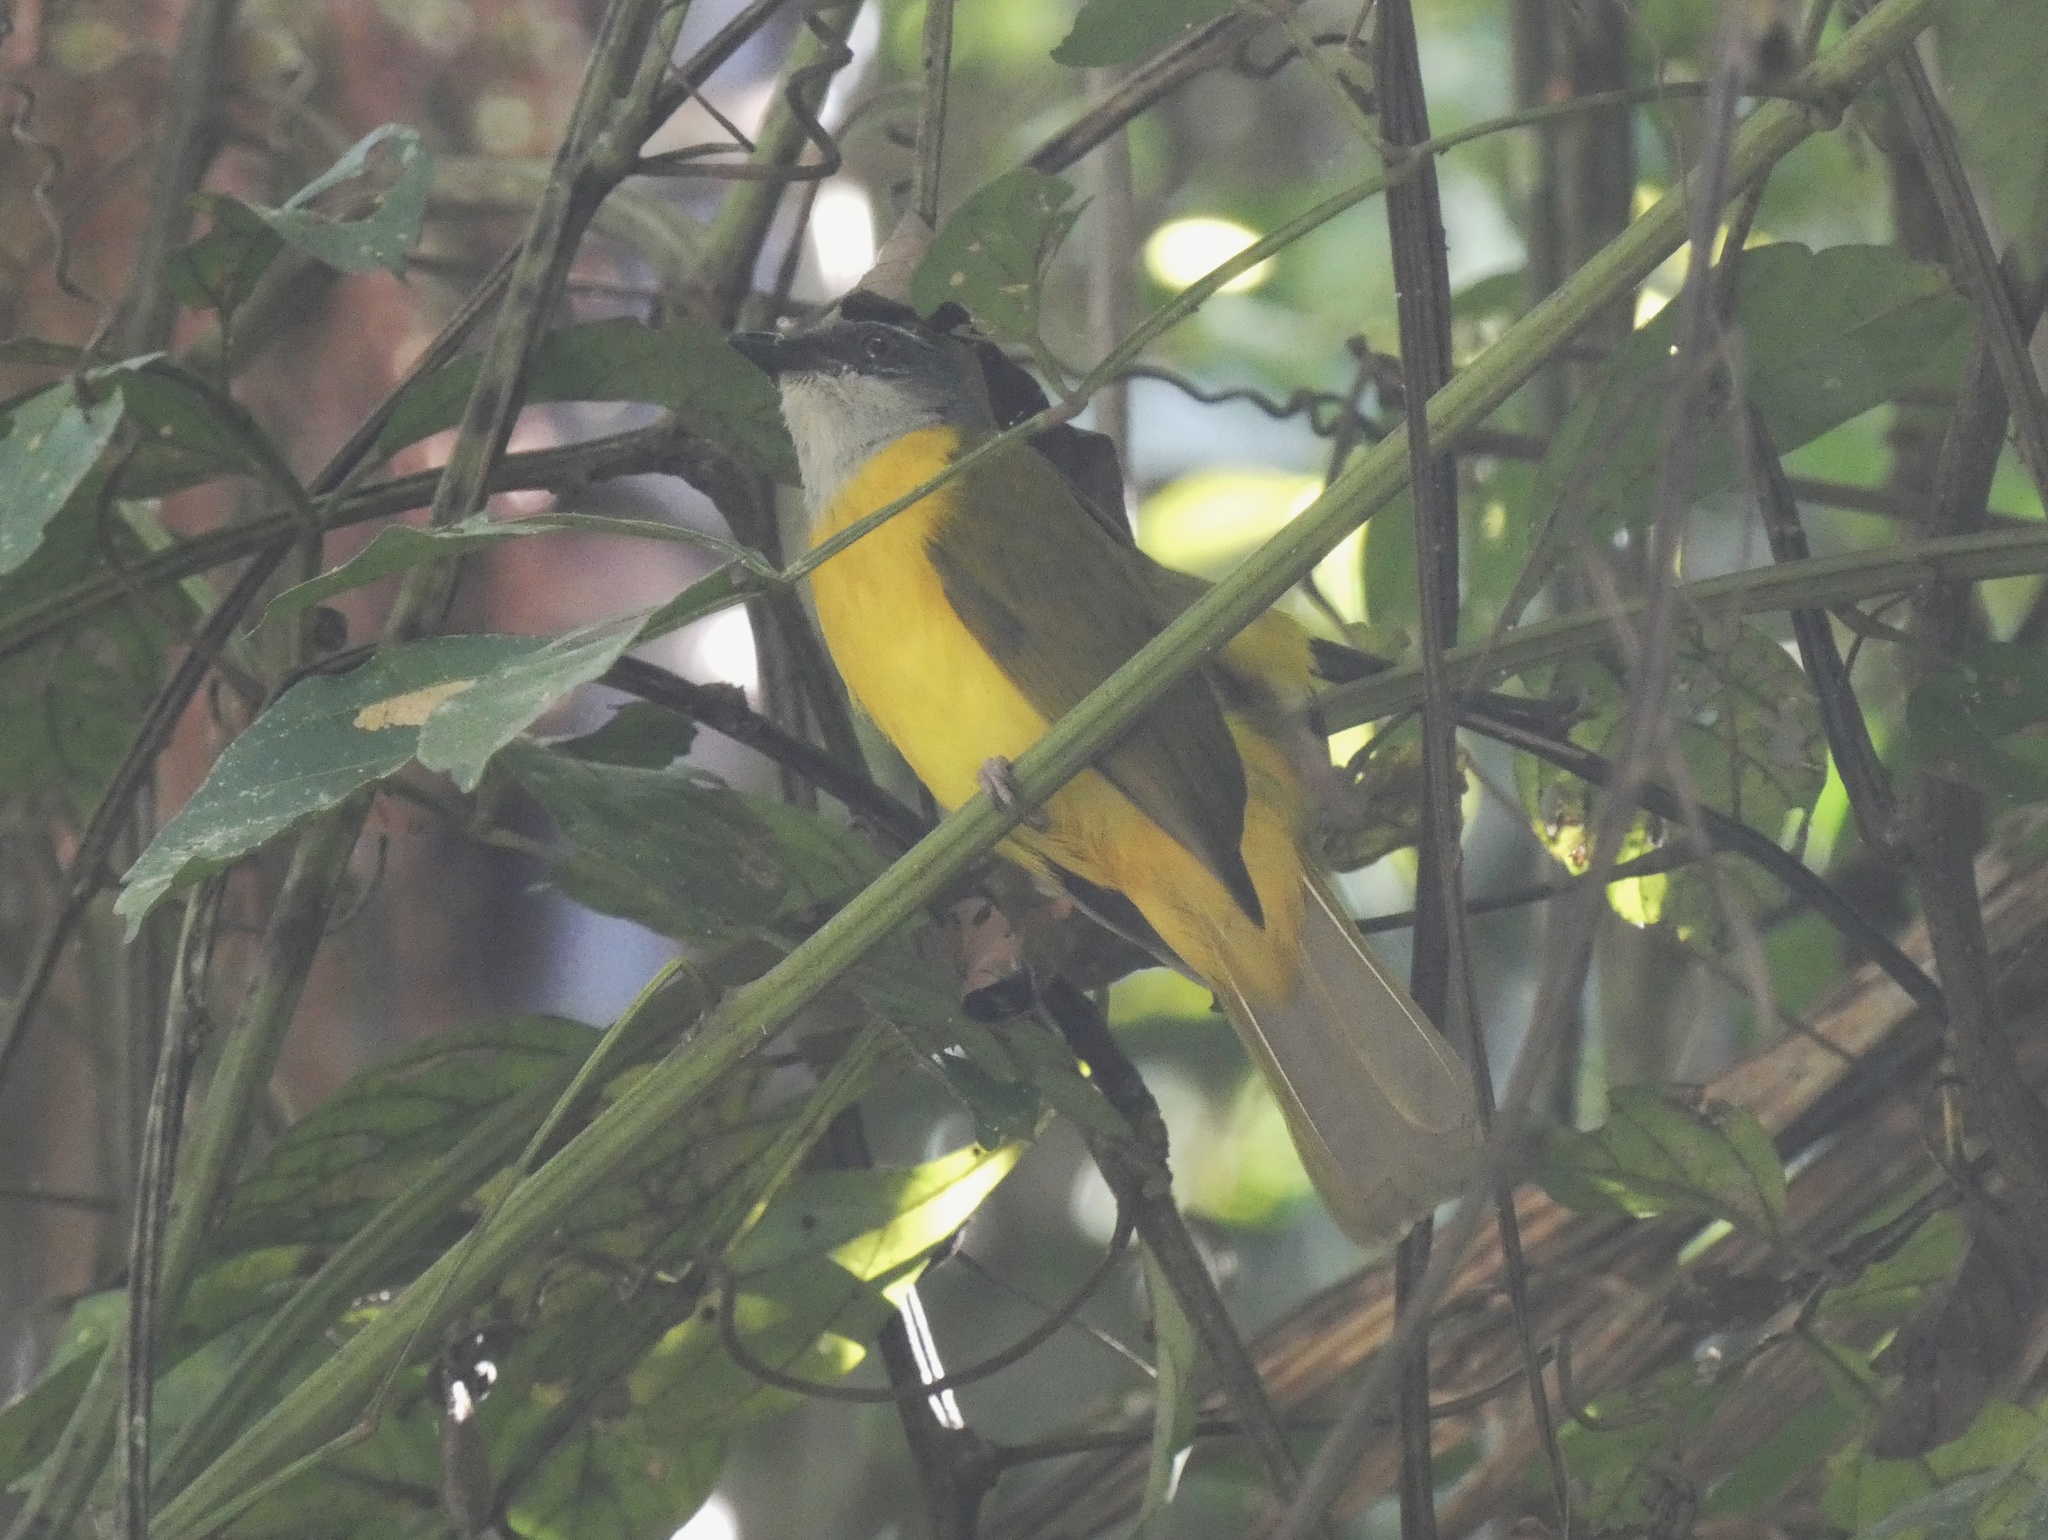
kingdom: Animalia
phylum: Chordata
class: Aves
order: Passeriformes
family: Thraupidae
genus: Eucometis
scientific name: Eucometis penicillata
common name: Grey-headed tanager
